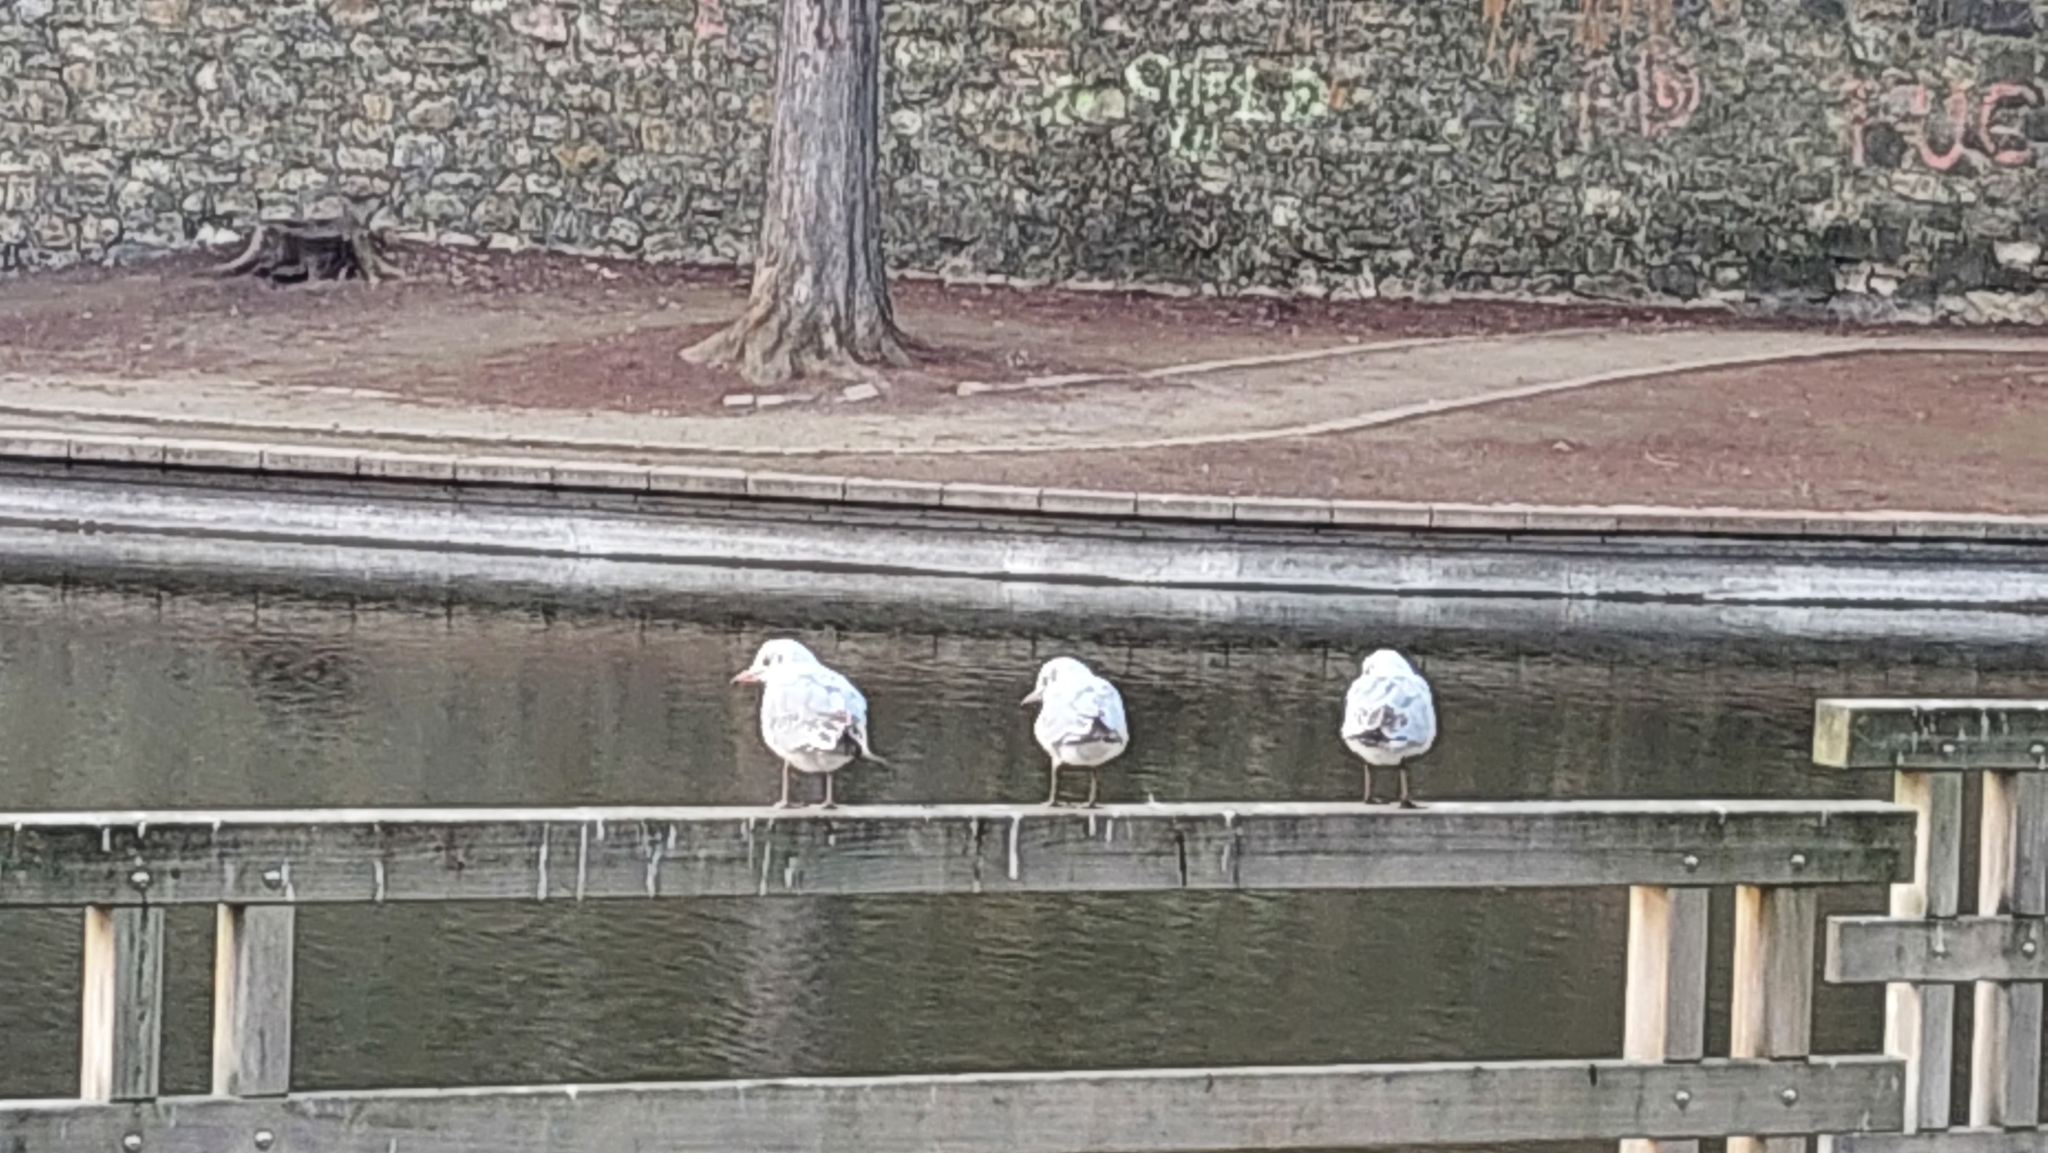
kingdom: Animalia
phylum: Chordata
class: Aves
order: Charadriiformes
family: Laridae
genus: Chroicocephalus
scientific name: Chroicocephalus ridibundus
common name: Black-headed gull
